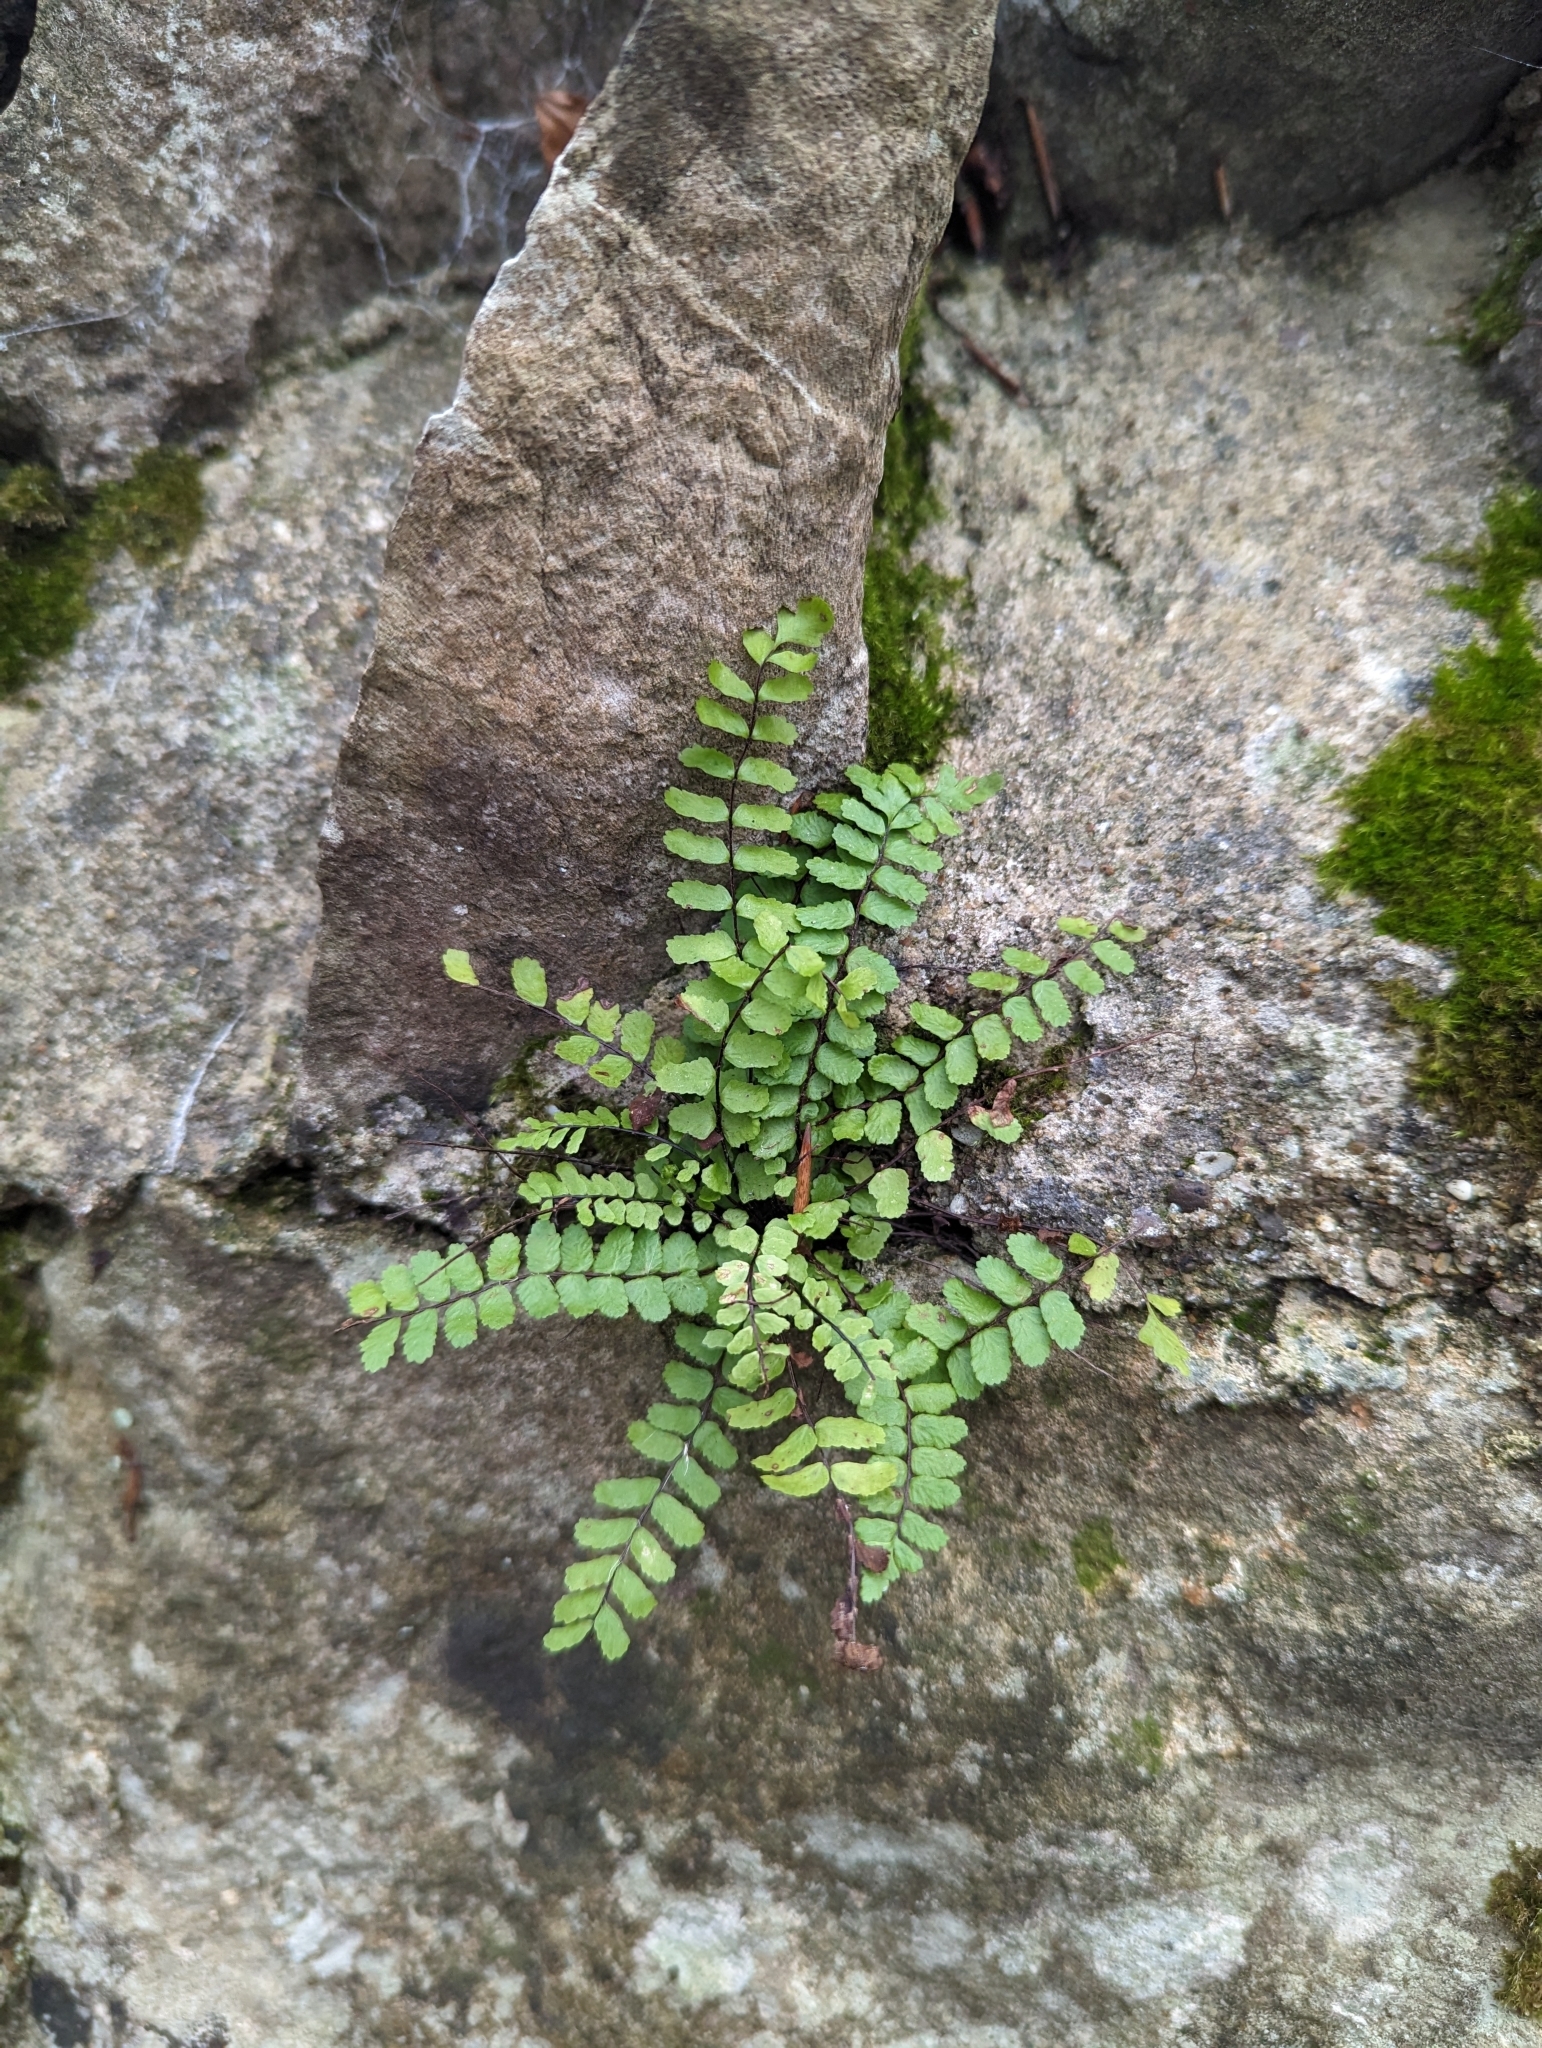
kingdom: Plantae
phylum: Tracheophyta
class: Polypodiopsida
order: Polypodiales
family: Aspleniaceae
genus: Asplenium
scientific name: Asplenium trichomanes
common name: Maidenhair spleenwort
